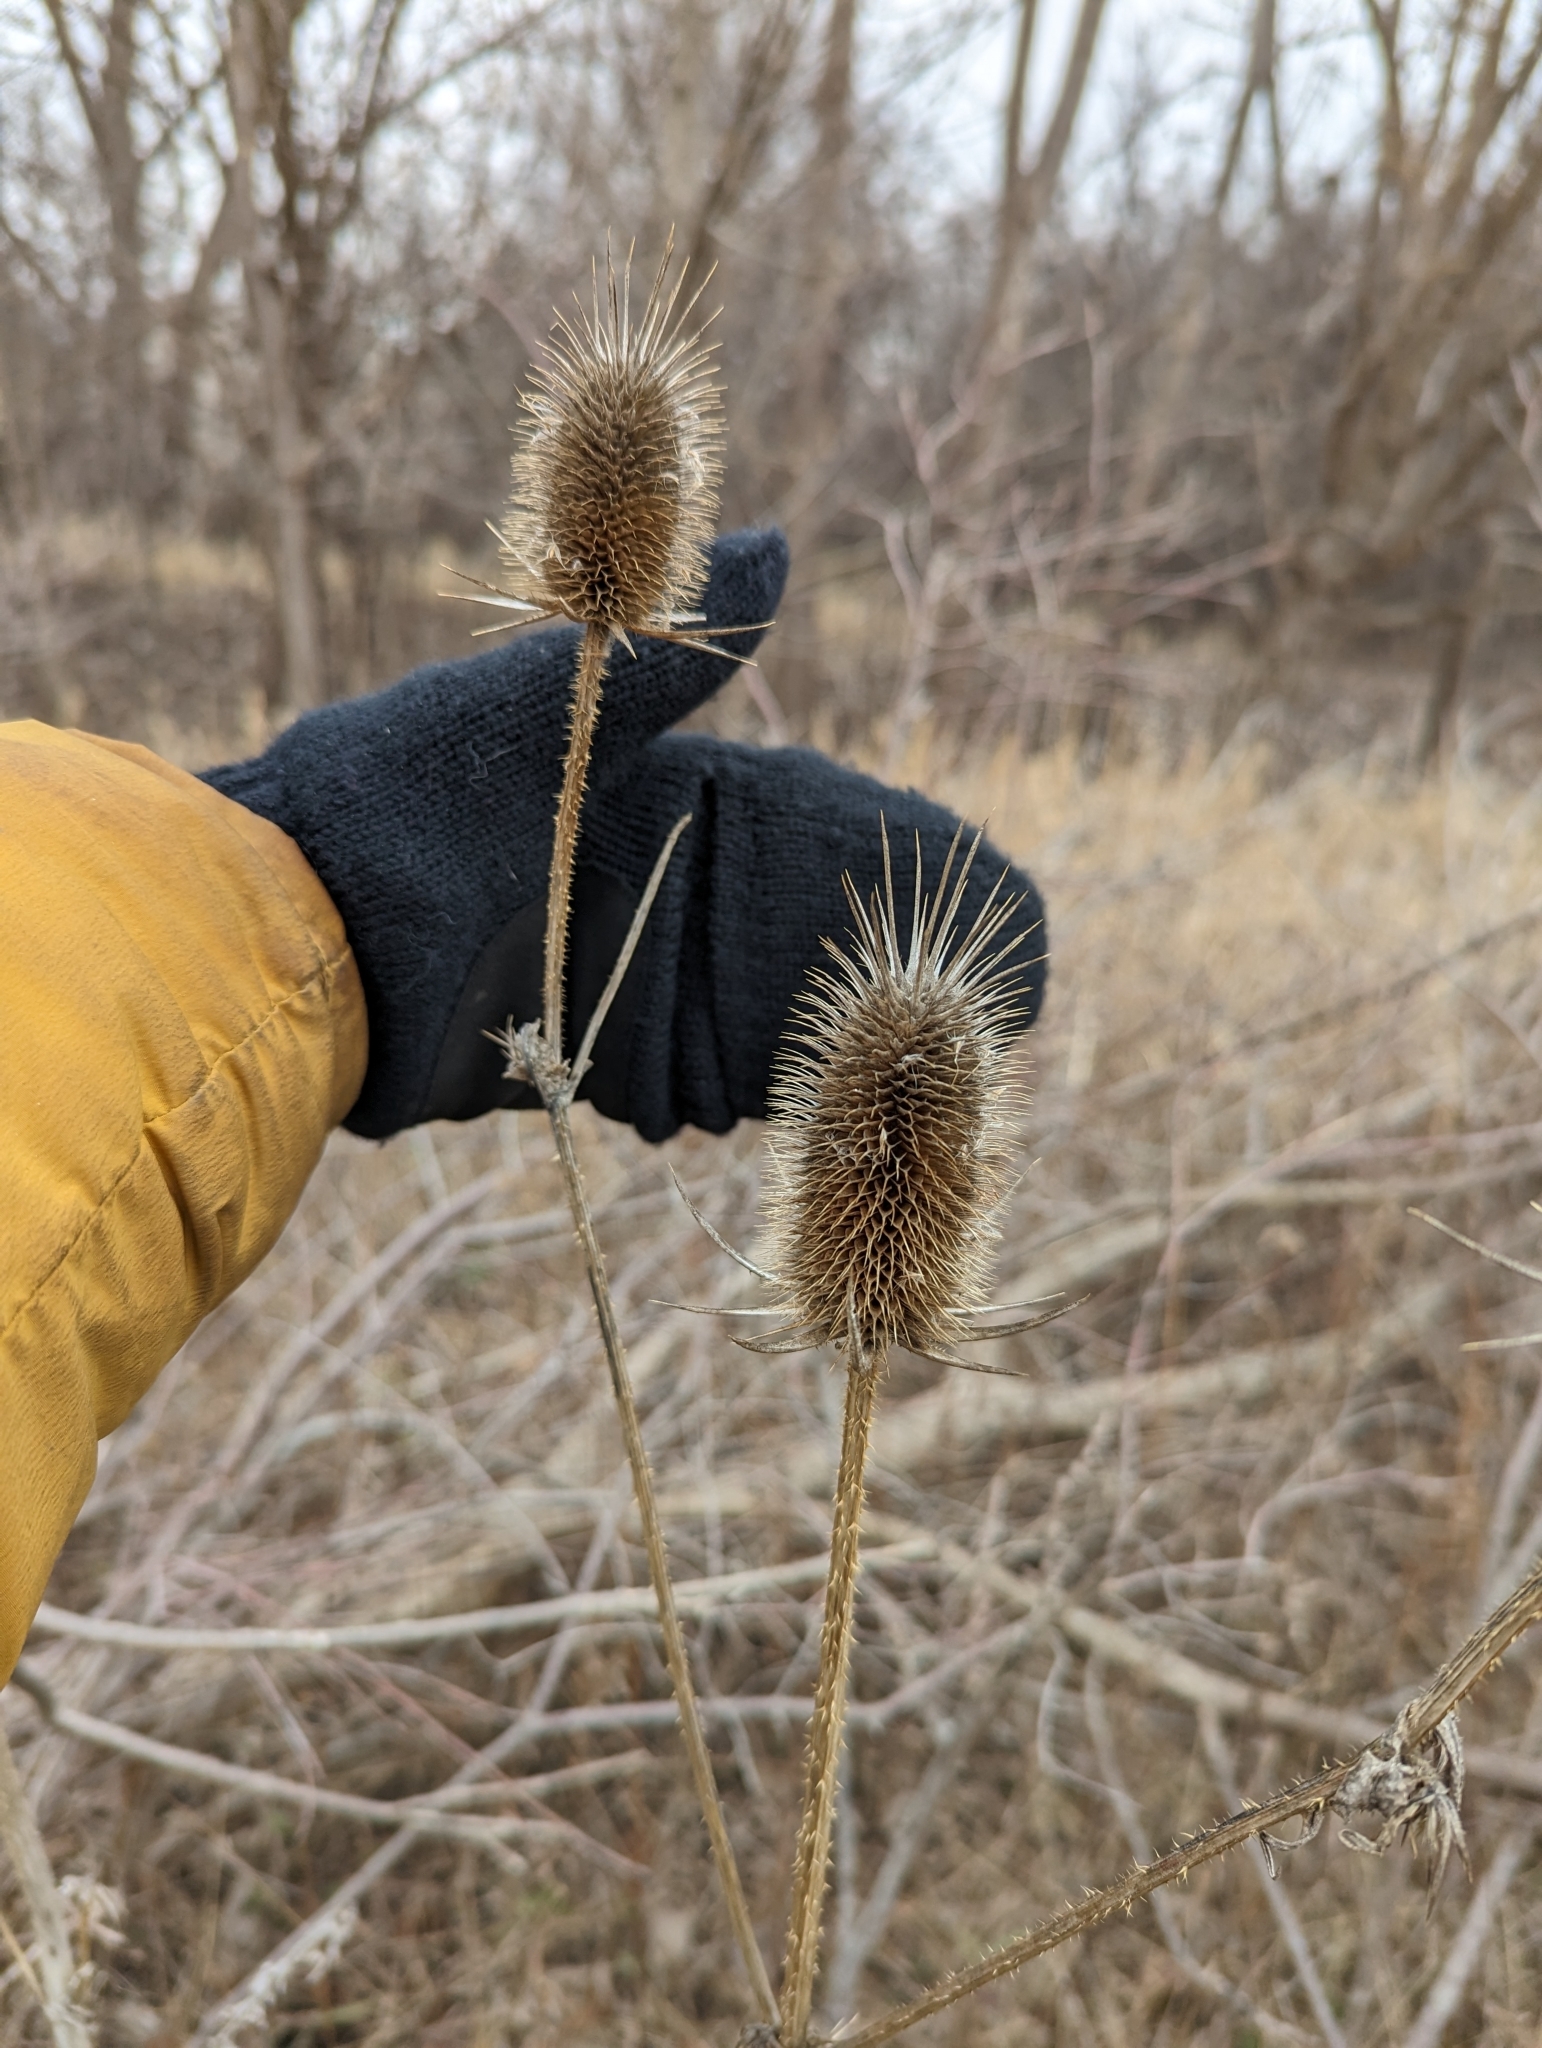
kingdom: Plantae
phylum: Tracheophyta
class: Magnoliopsida
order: Dipsacales
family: Caprifoliaceae
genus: Dipsacus
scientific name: Dipsacus laciniatus
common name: Cut-leaved teasel
